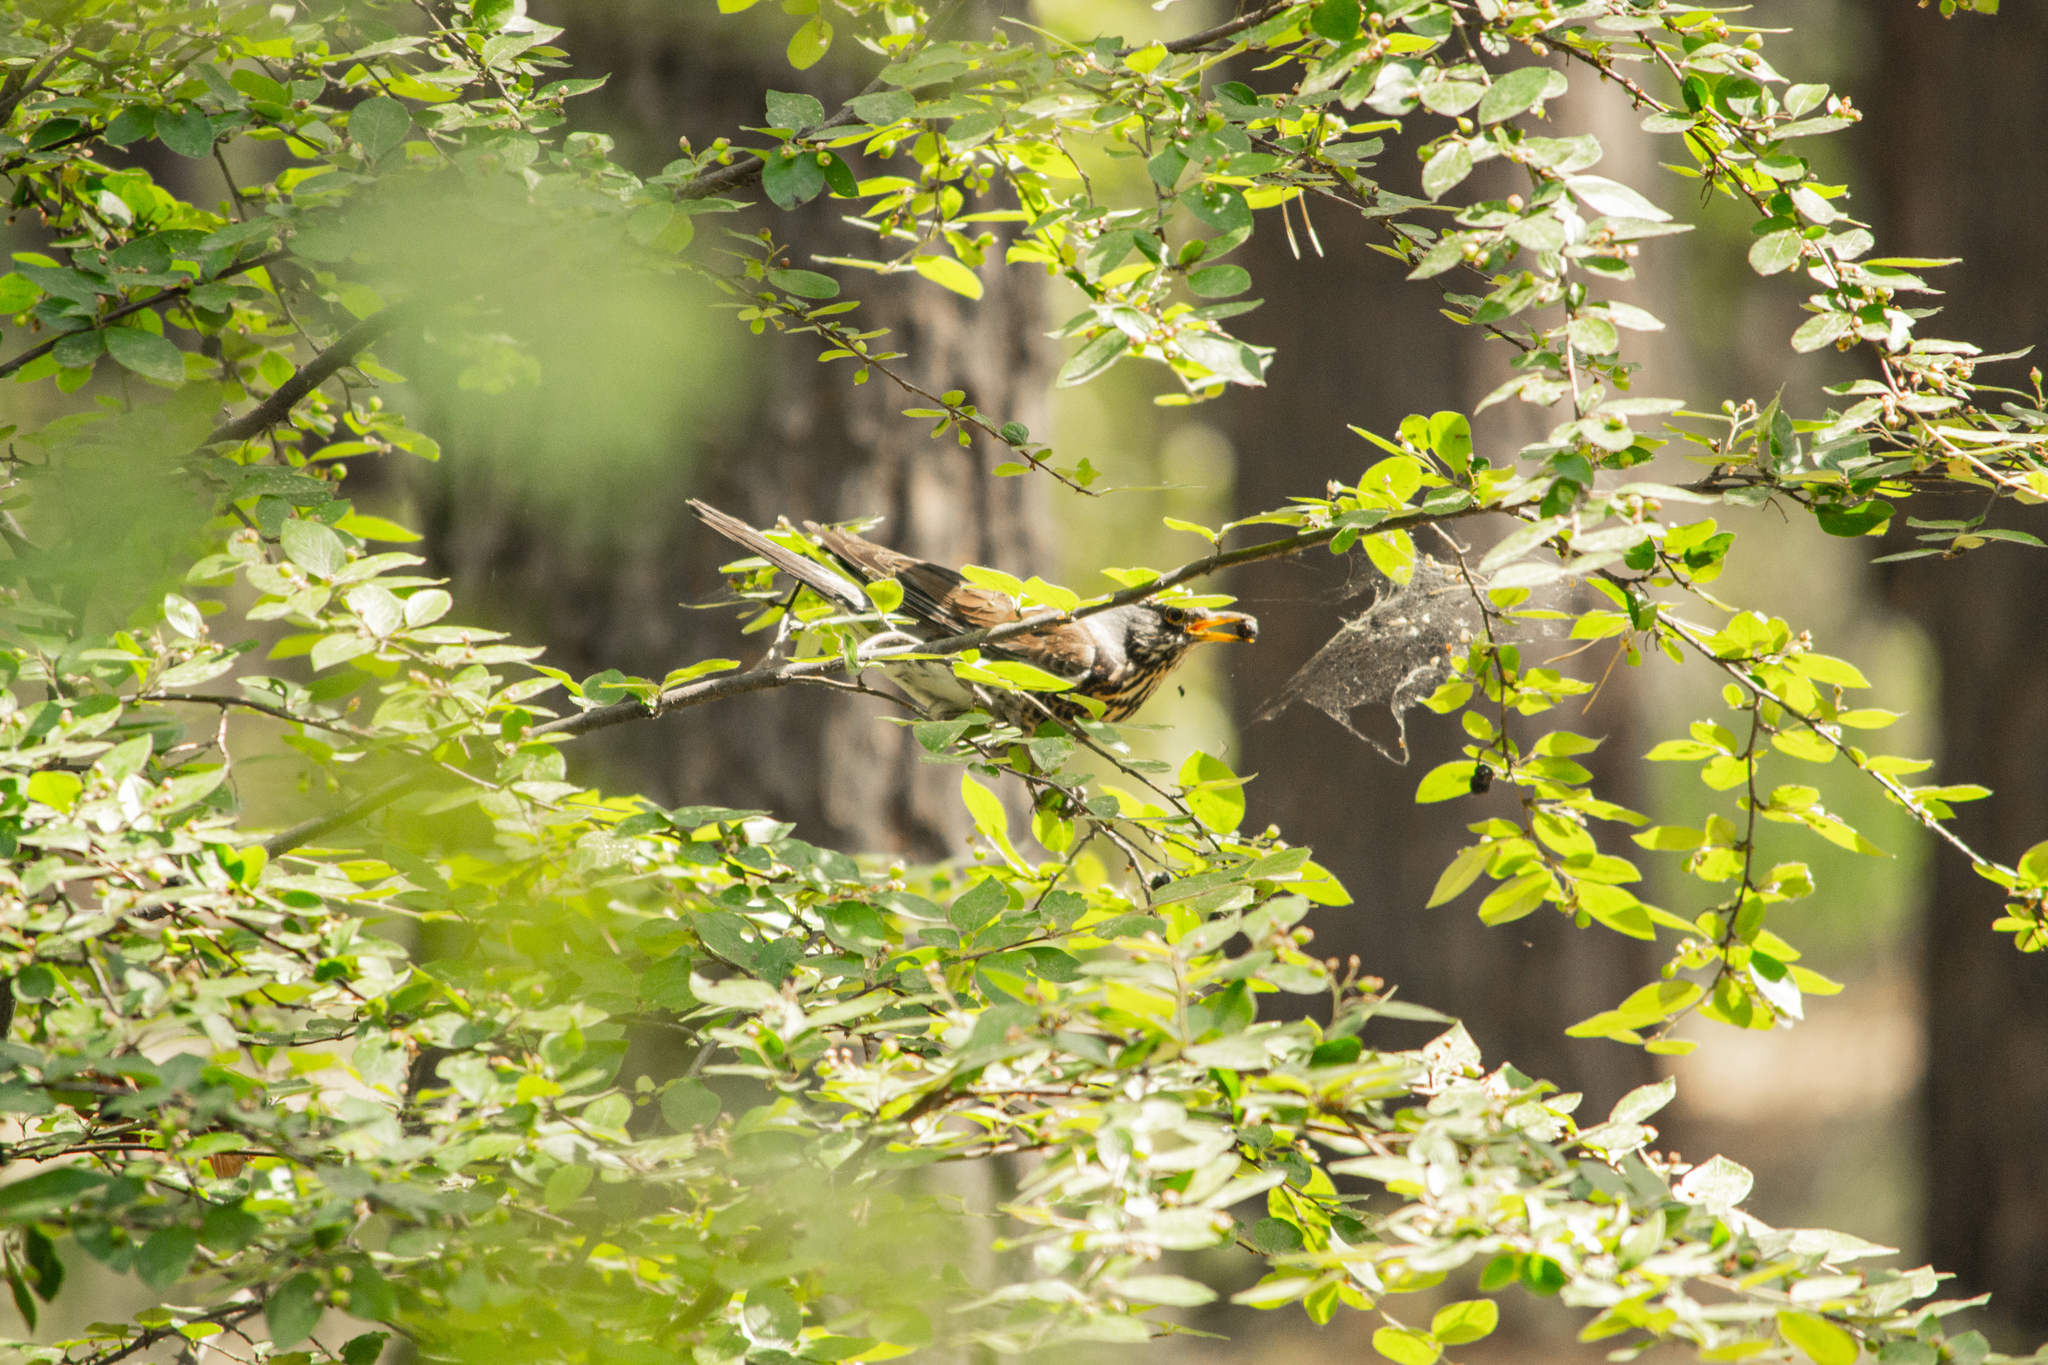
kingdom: Animalia
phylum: Chordata
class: Aves
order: Passeriformes
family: Turdidae
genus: Turdus
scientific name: Turdus pilaris
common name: Fieldfare
